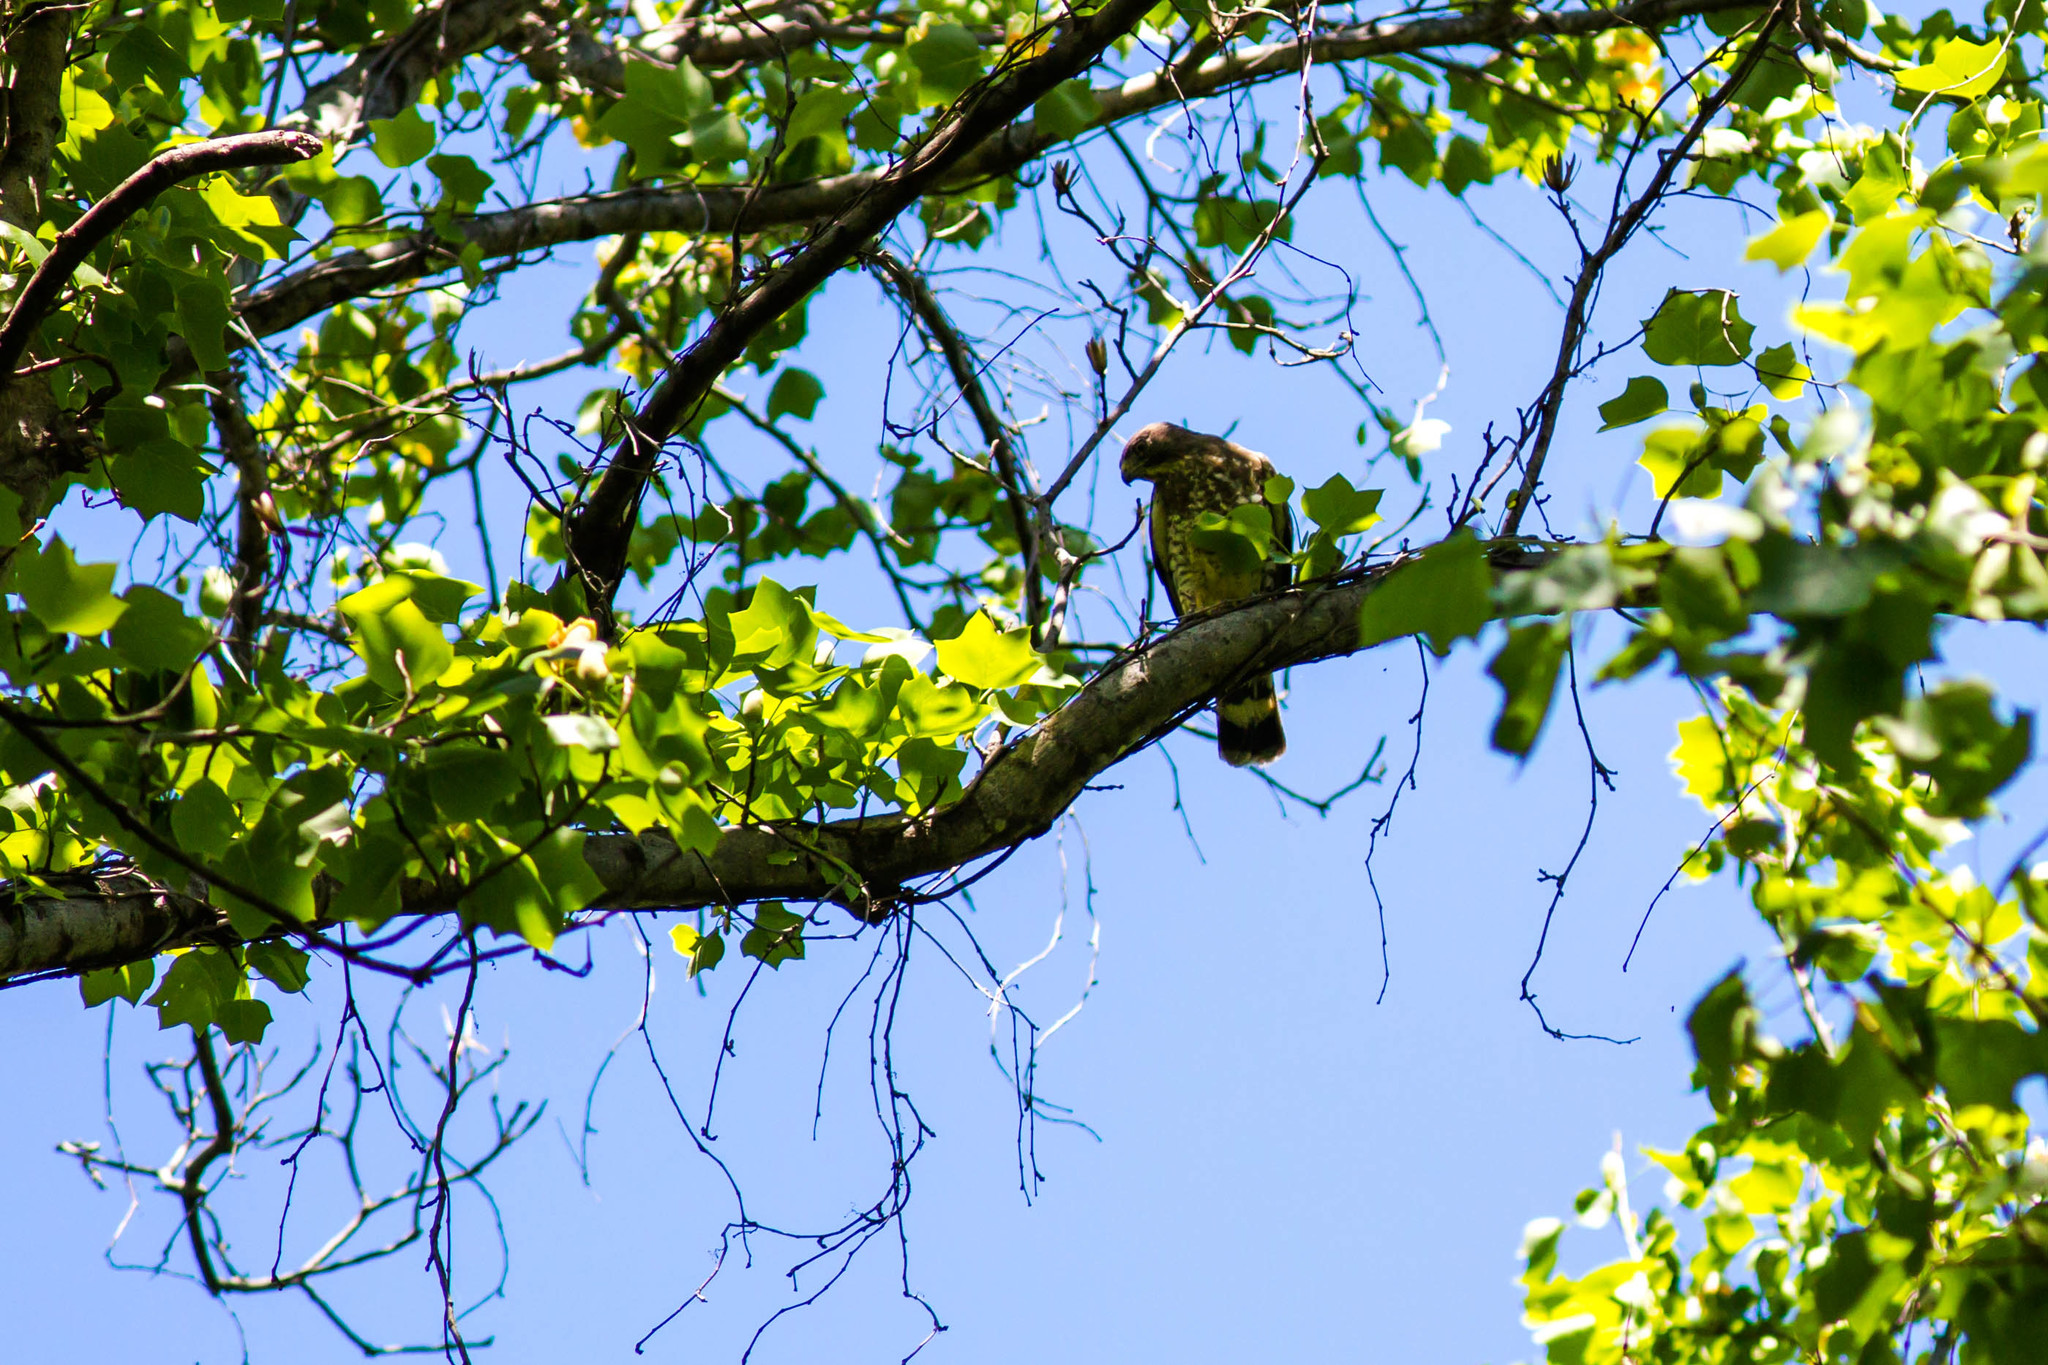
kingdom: Animalia
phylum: Chordata
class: Aves
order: Accipitriformes
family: Accipitridae
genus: Buteo
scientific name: Buteo platypterus
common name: Broad-winged hawk
